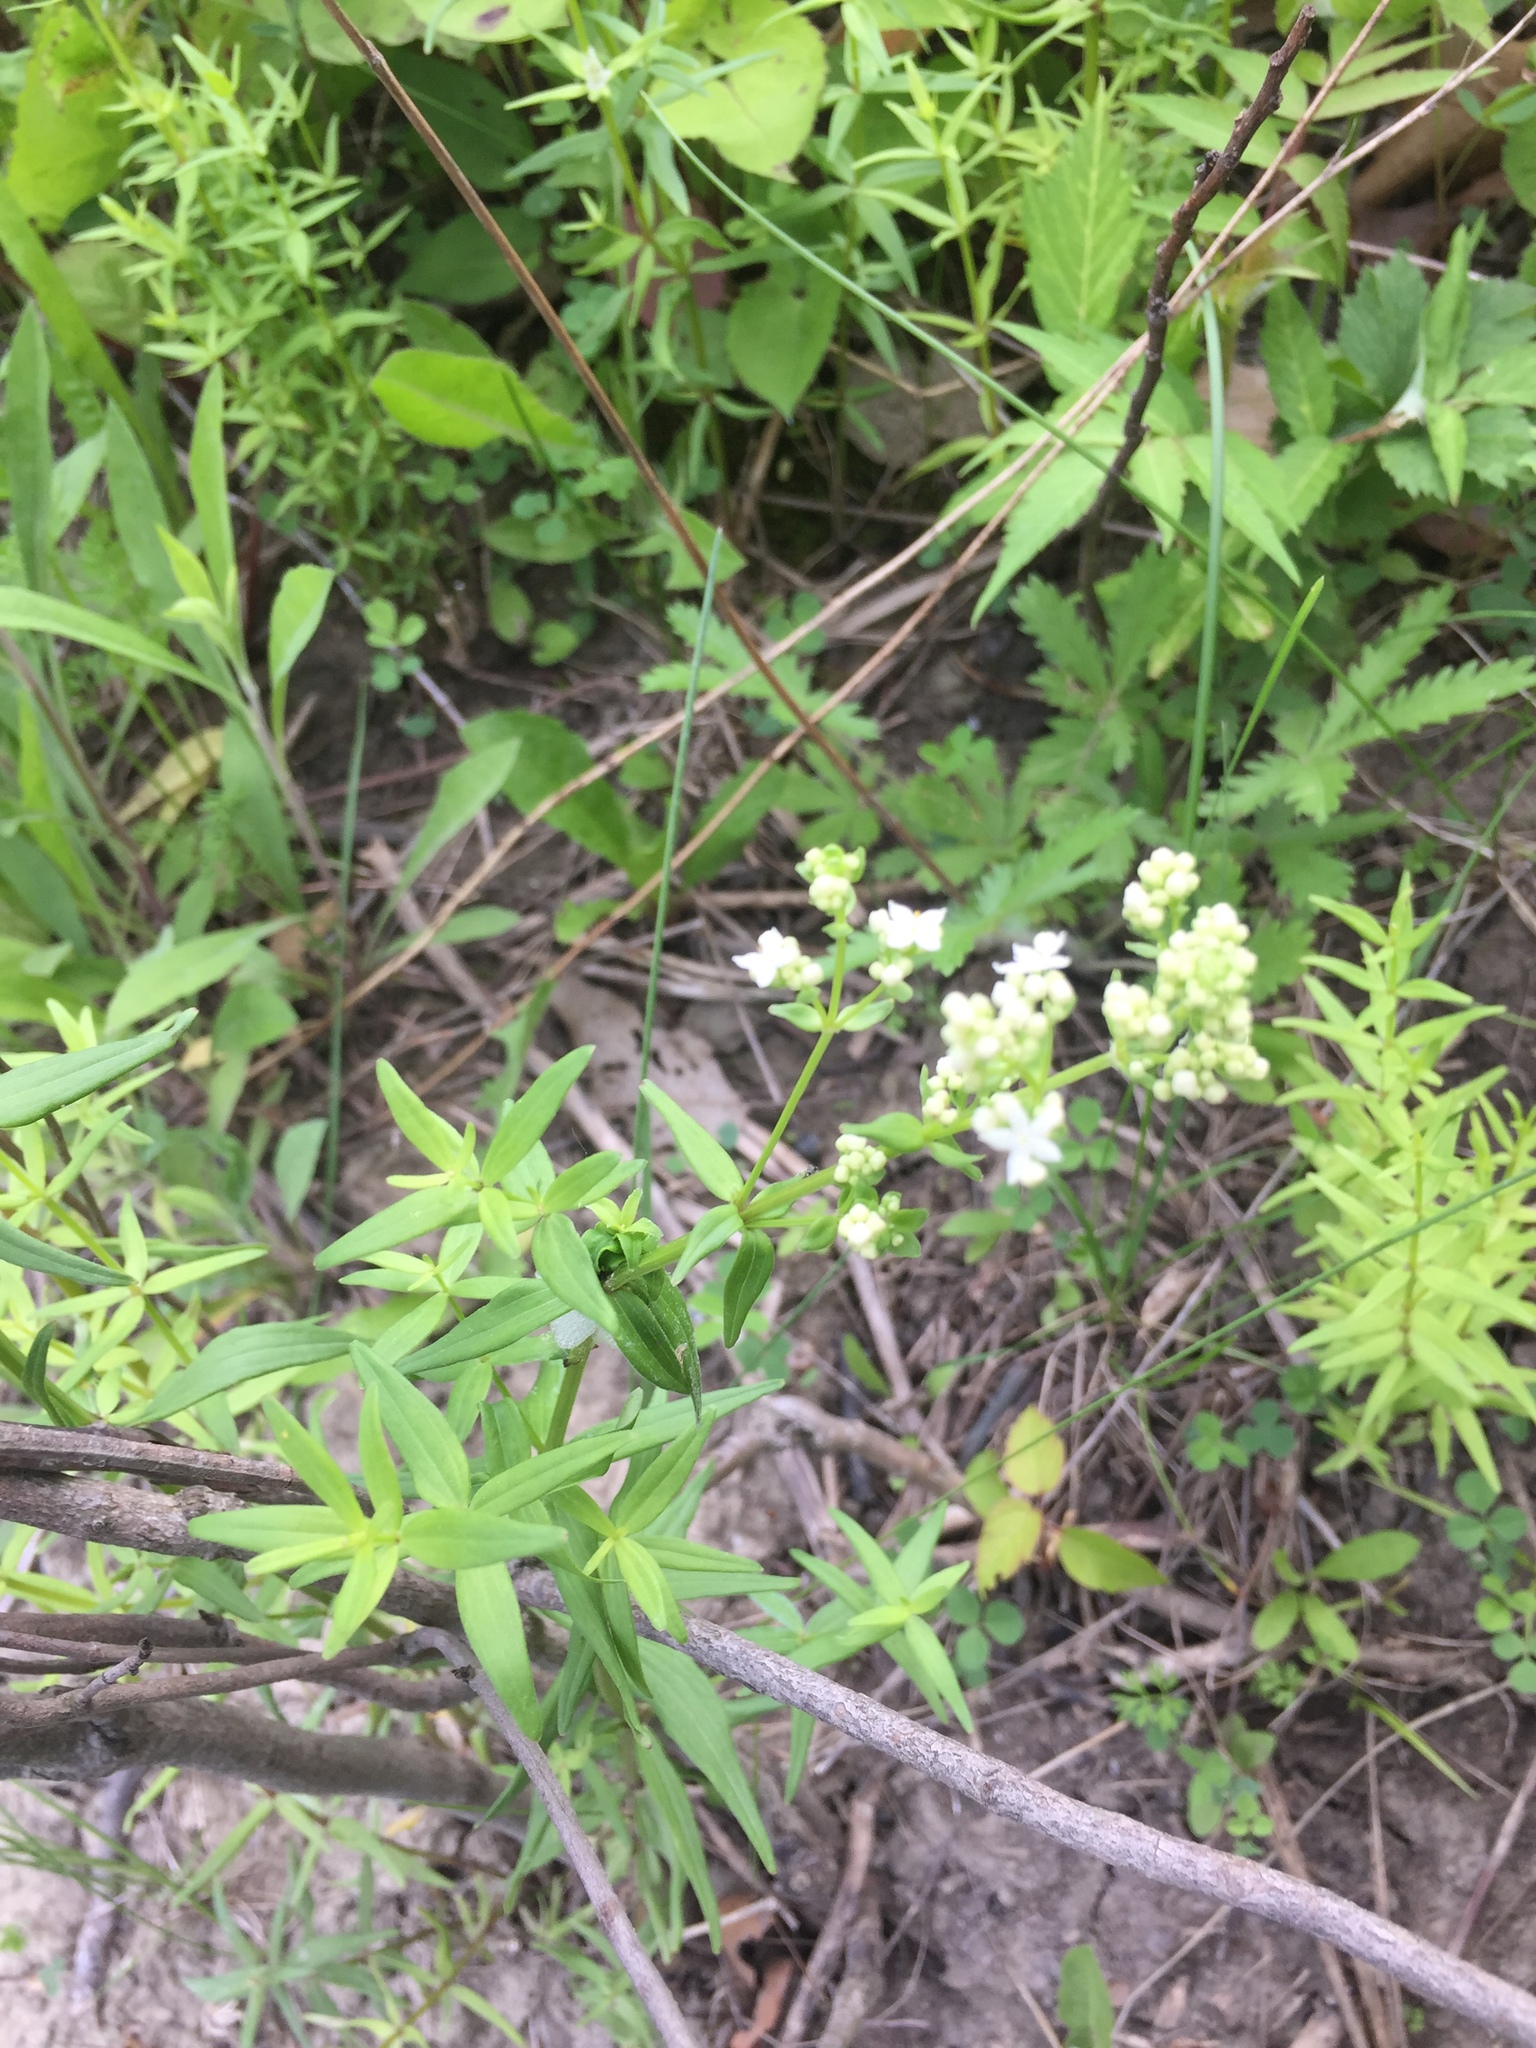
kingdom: Plantae
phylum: Tracheophyta
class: Magnoliopsida
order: Gentianales
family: Rubiaceae
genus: Galium
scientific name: Galium boreale
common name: Northern bedstraw
